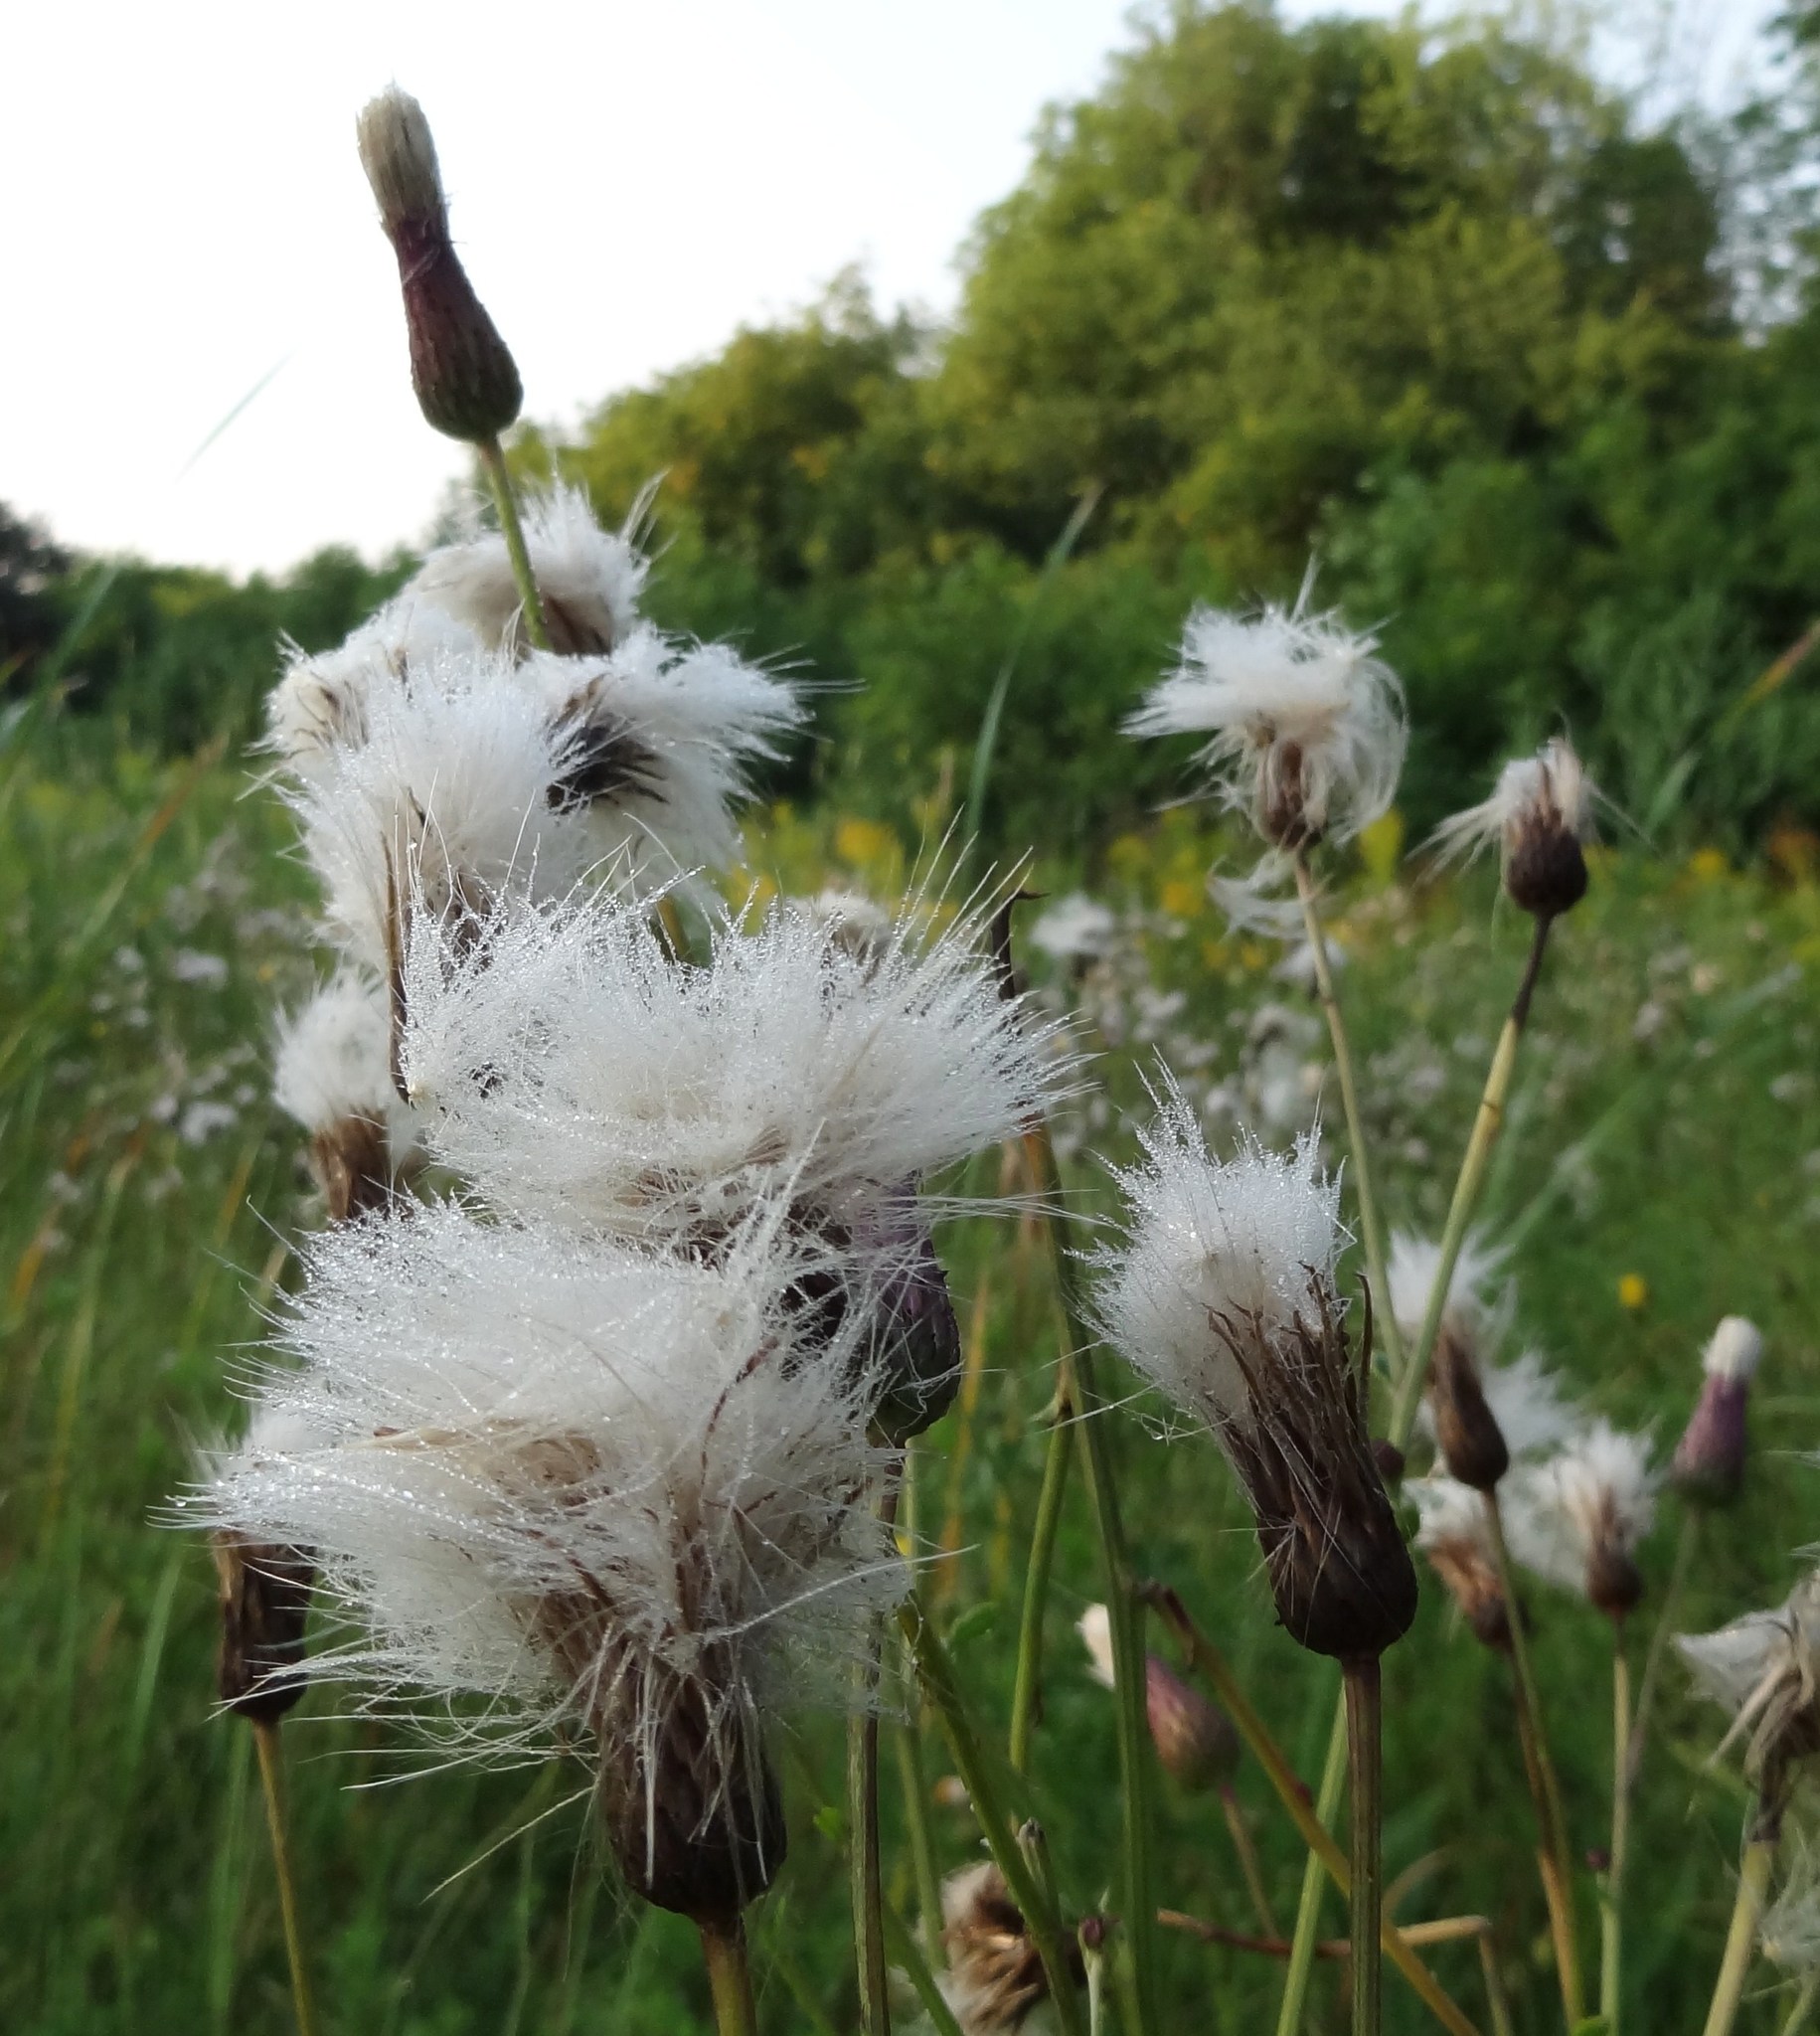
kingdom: Plantae
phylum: Tracheophyta
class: Magnoliopsida
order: Asterales
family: Asteraceae
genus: Cirsium
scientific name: Cirsium arvense
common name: Creeping thistle
